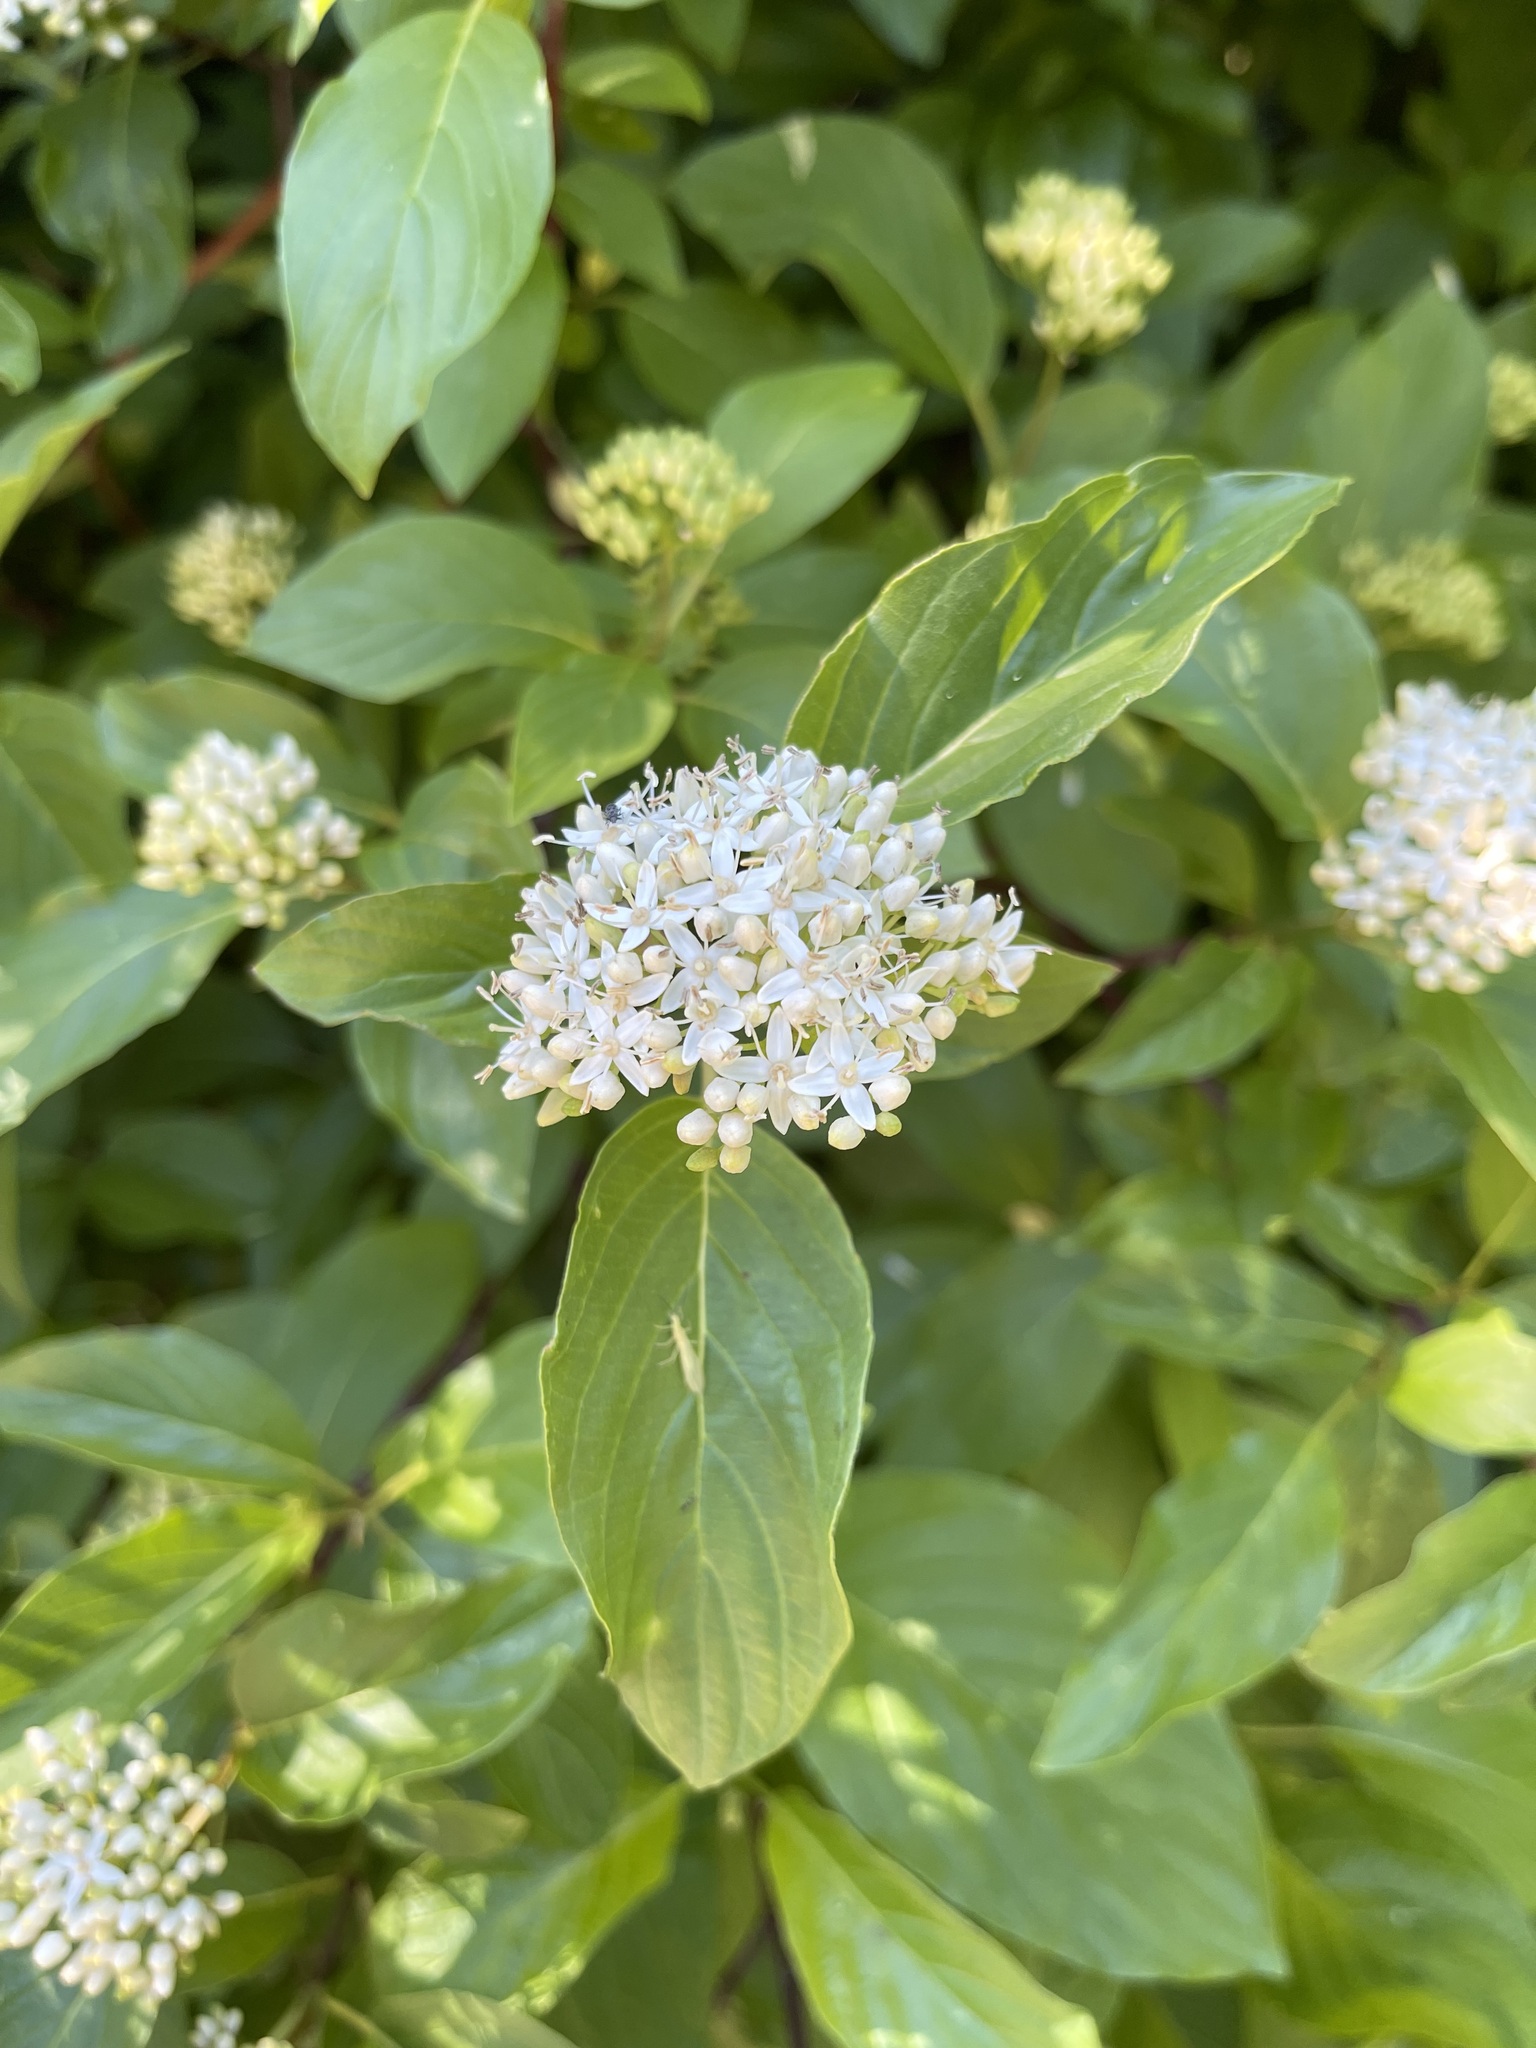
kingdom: Plantae
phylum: Tracheophyta
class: Magnoliopsida
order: Cornales
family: Cornaceae
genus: Cornus
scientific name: Cornus sericea
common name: Red-osier dogwood
